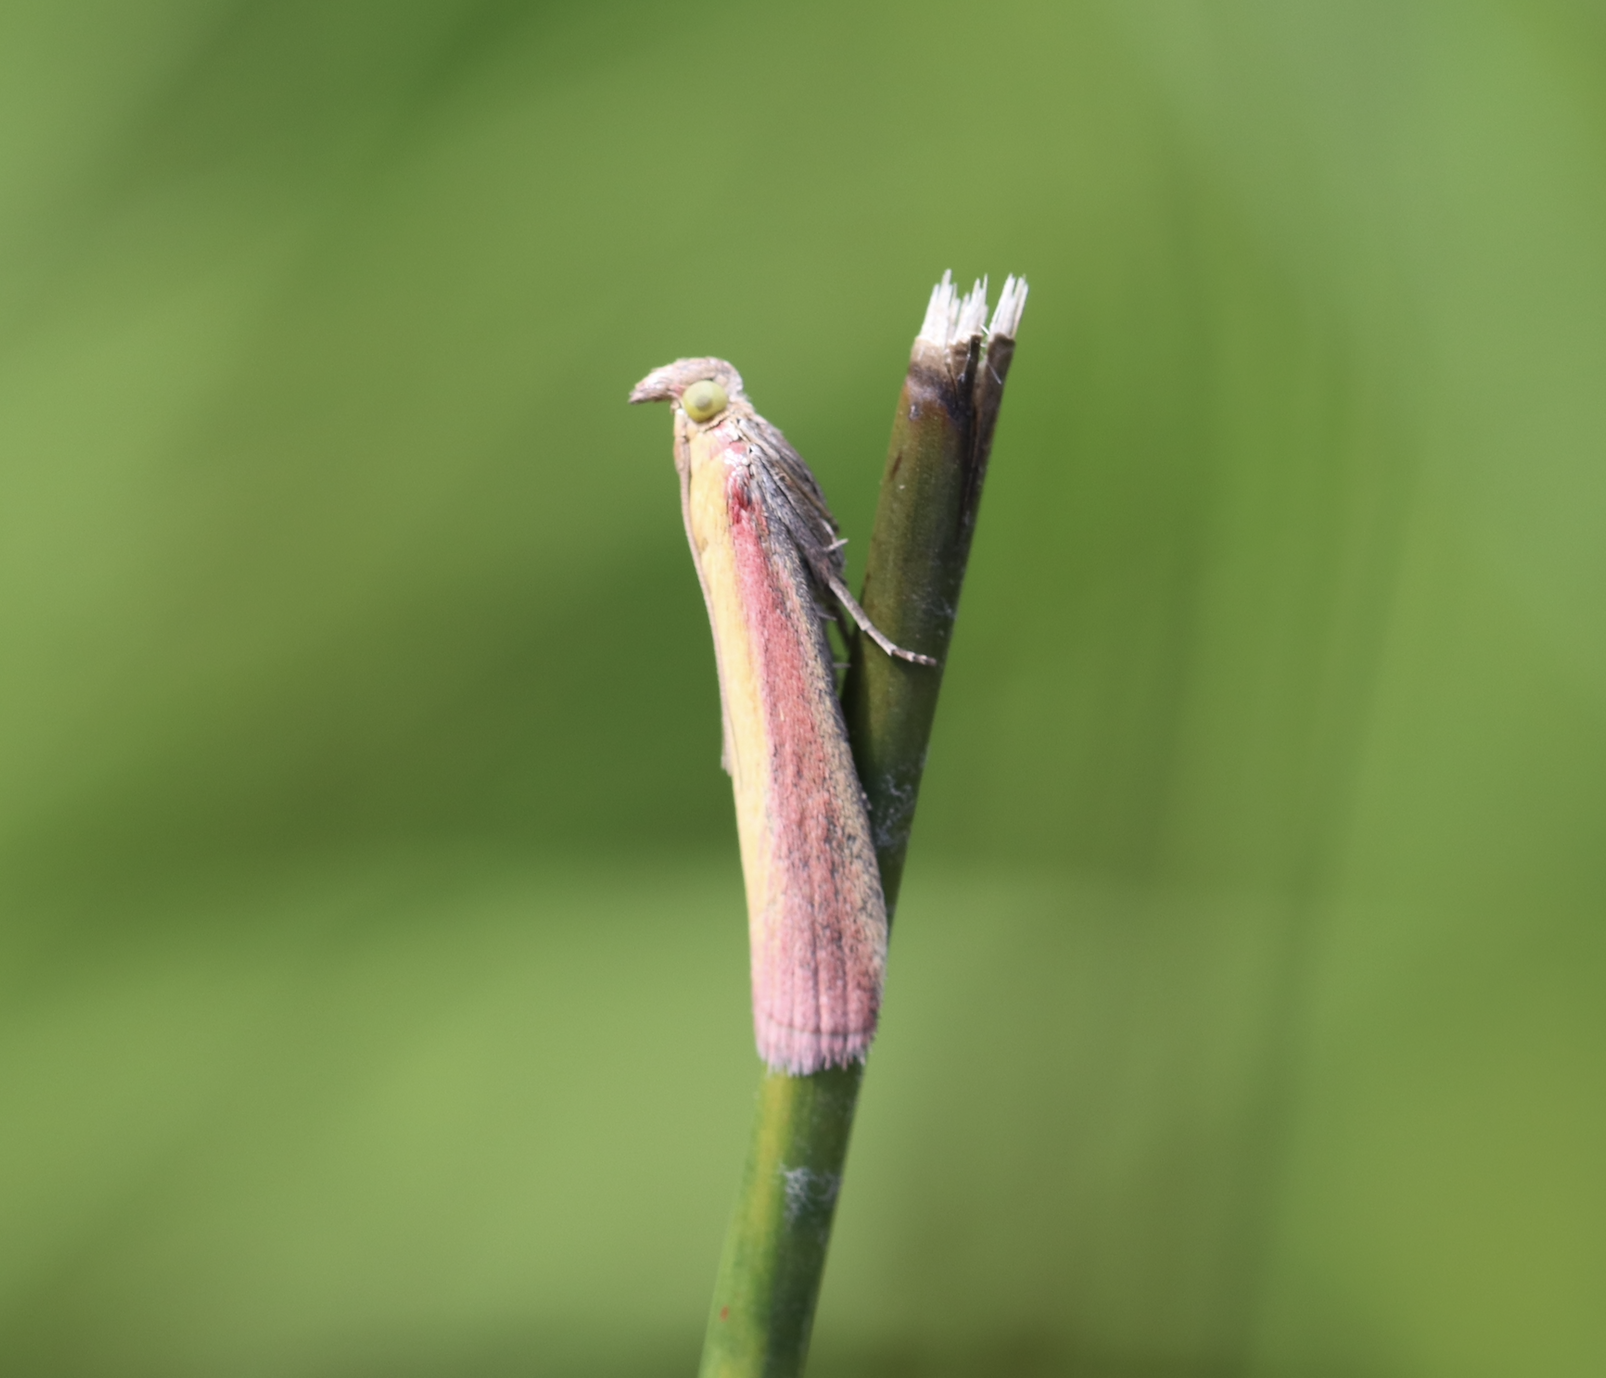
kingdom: Animalia
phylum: Arthropoda
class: Insecta
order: Lepidoptera
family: Pyralidae
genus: Oncocera
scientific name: Oncocera semirubella
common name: Rosy-striped knot-horn
